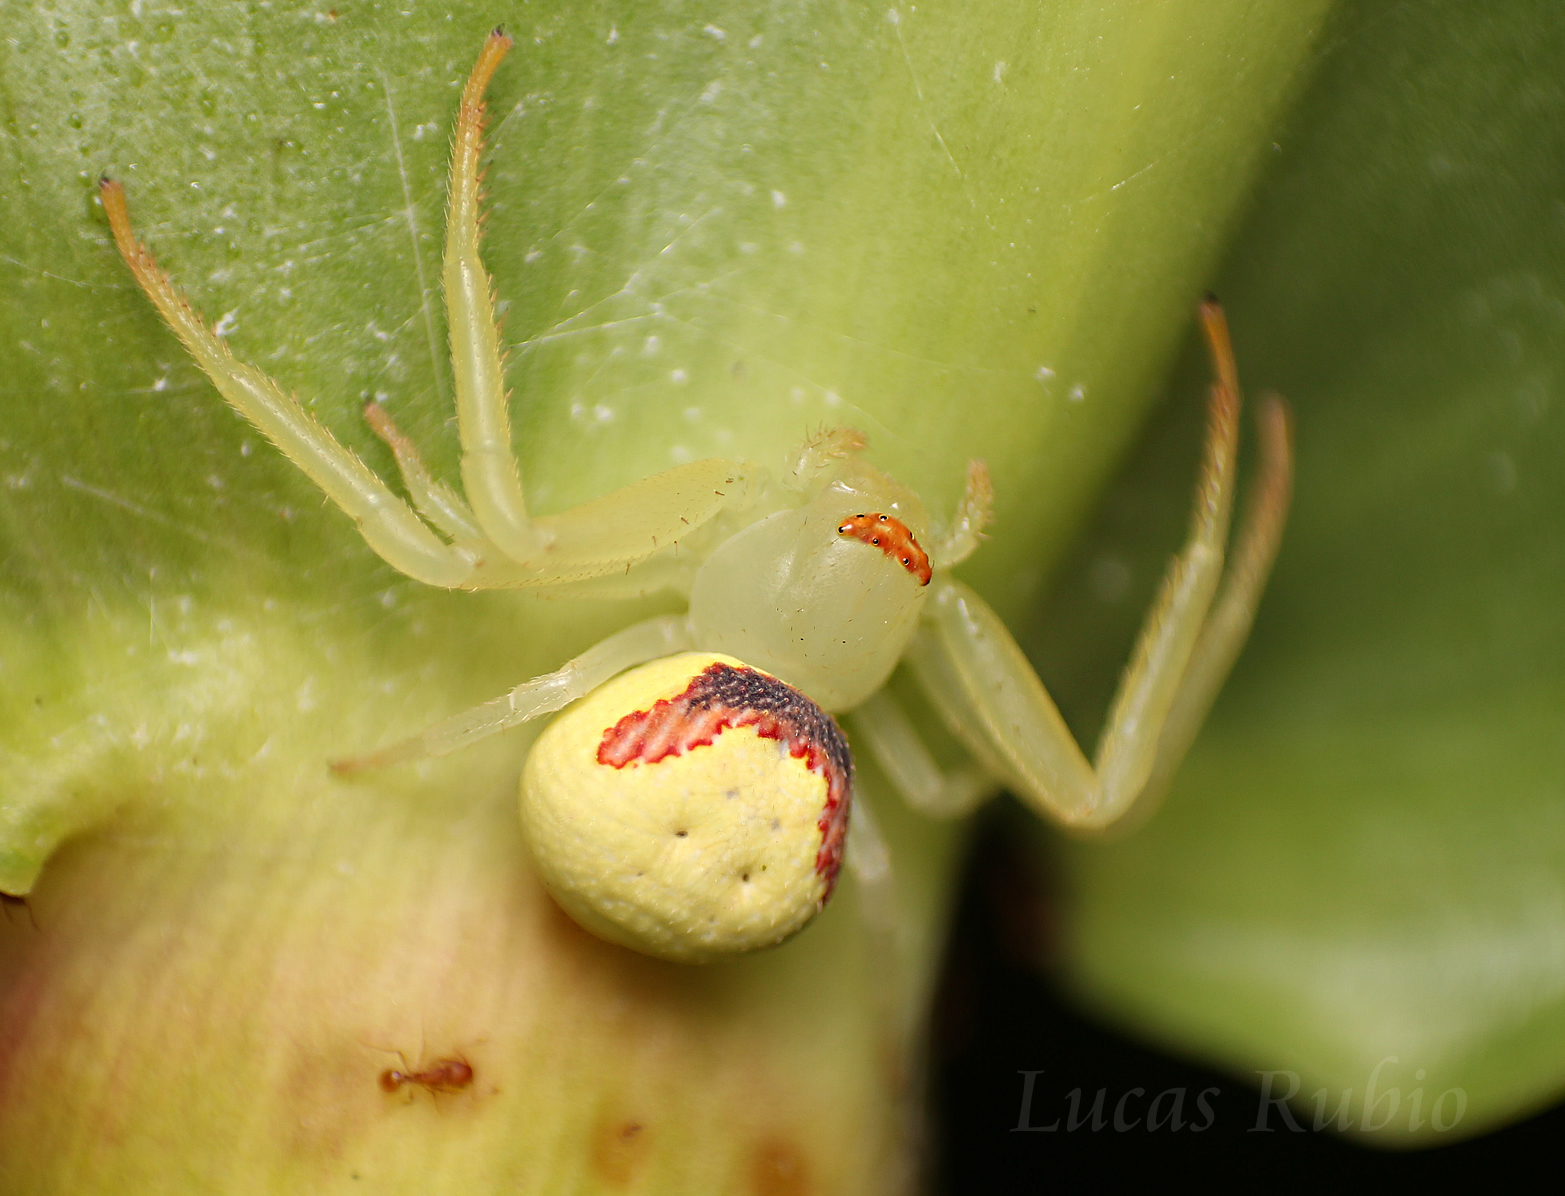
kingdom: Animalia
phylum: Arthropoda
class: Arachnida
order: Araneae
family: Thomisidae
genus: Misumenops
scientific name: Misumenops callinurus
